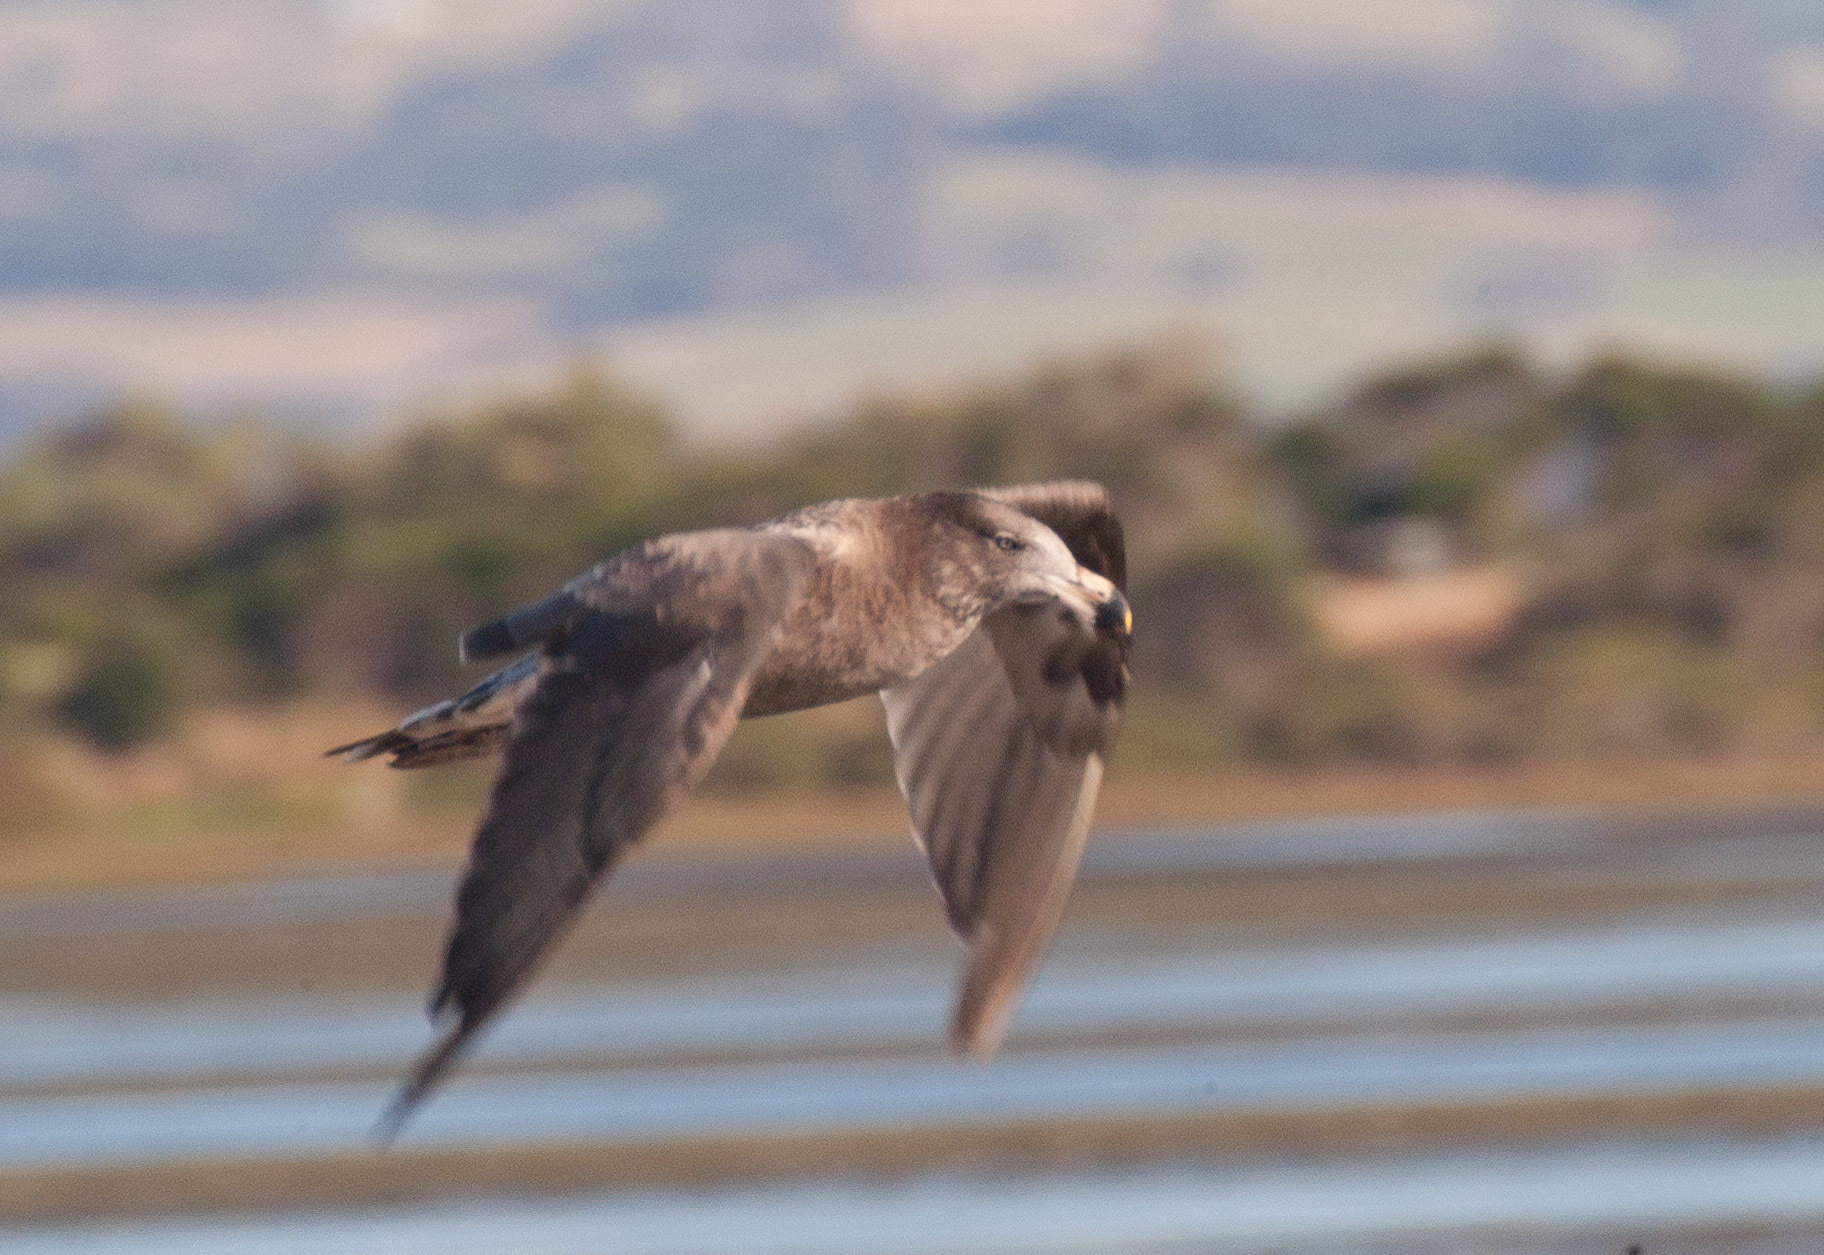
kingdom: Animalia
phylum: Chordata
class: Aves
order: Charadriiformes
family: Laridae
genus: Larus
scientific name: Larus pacificus
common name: Pacific gull
